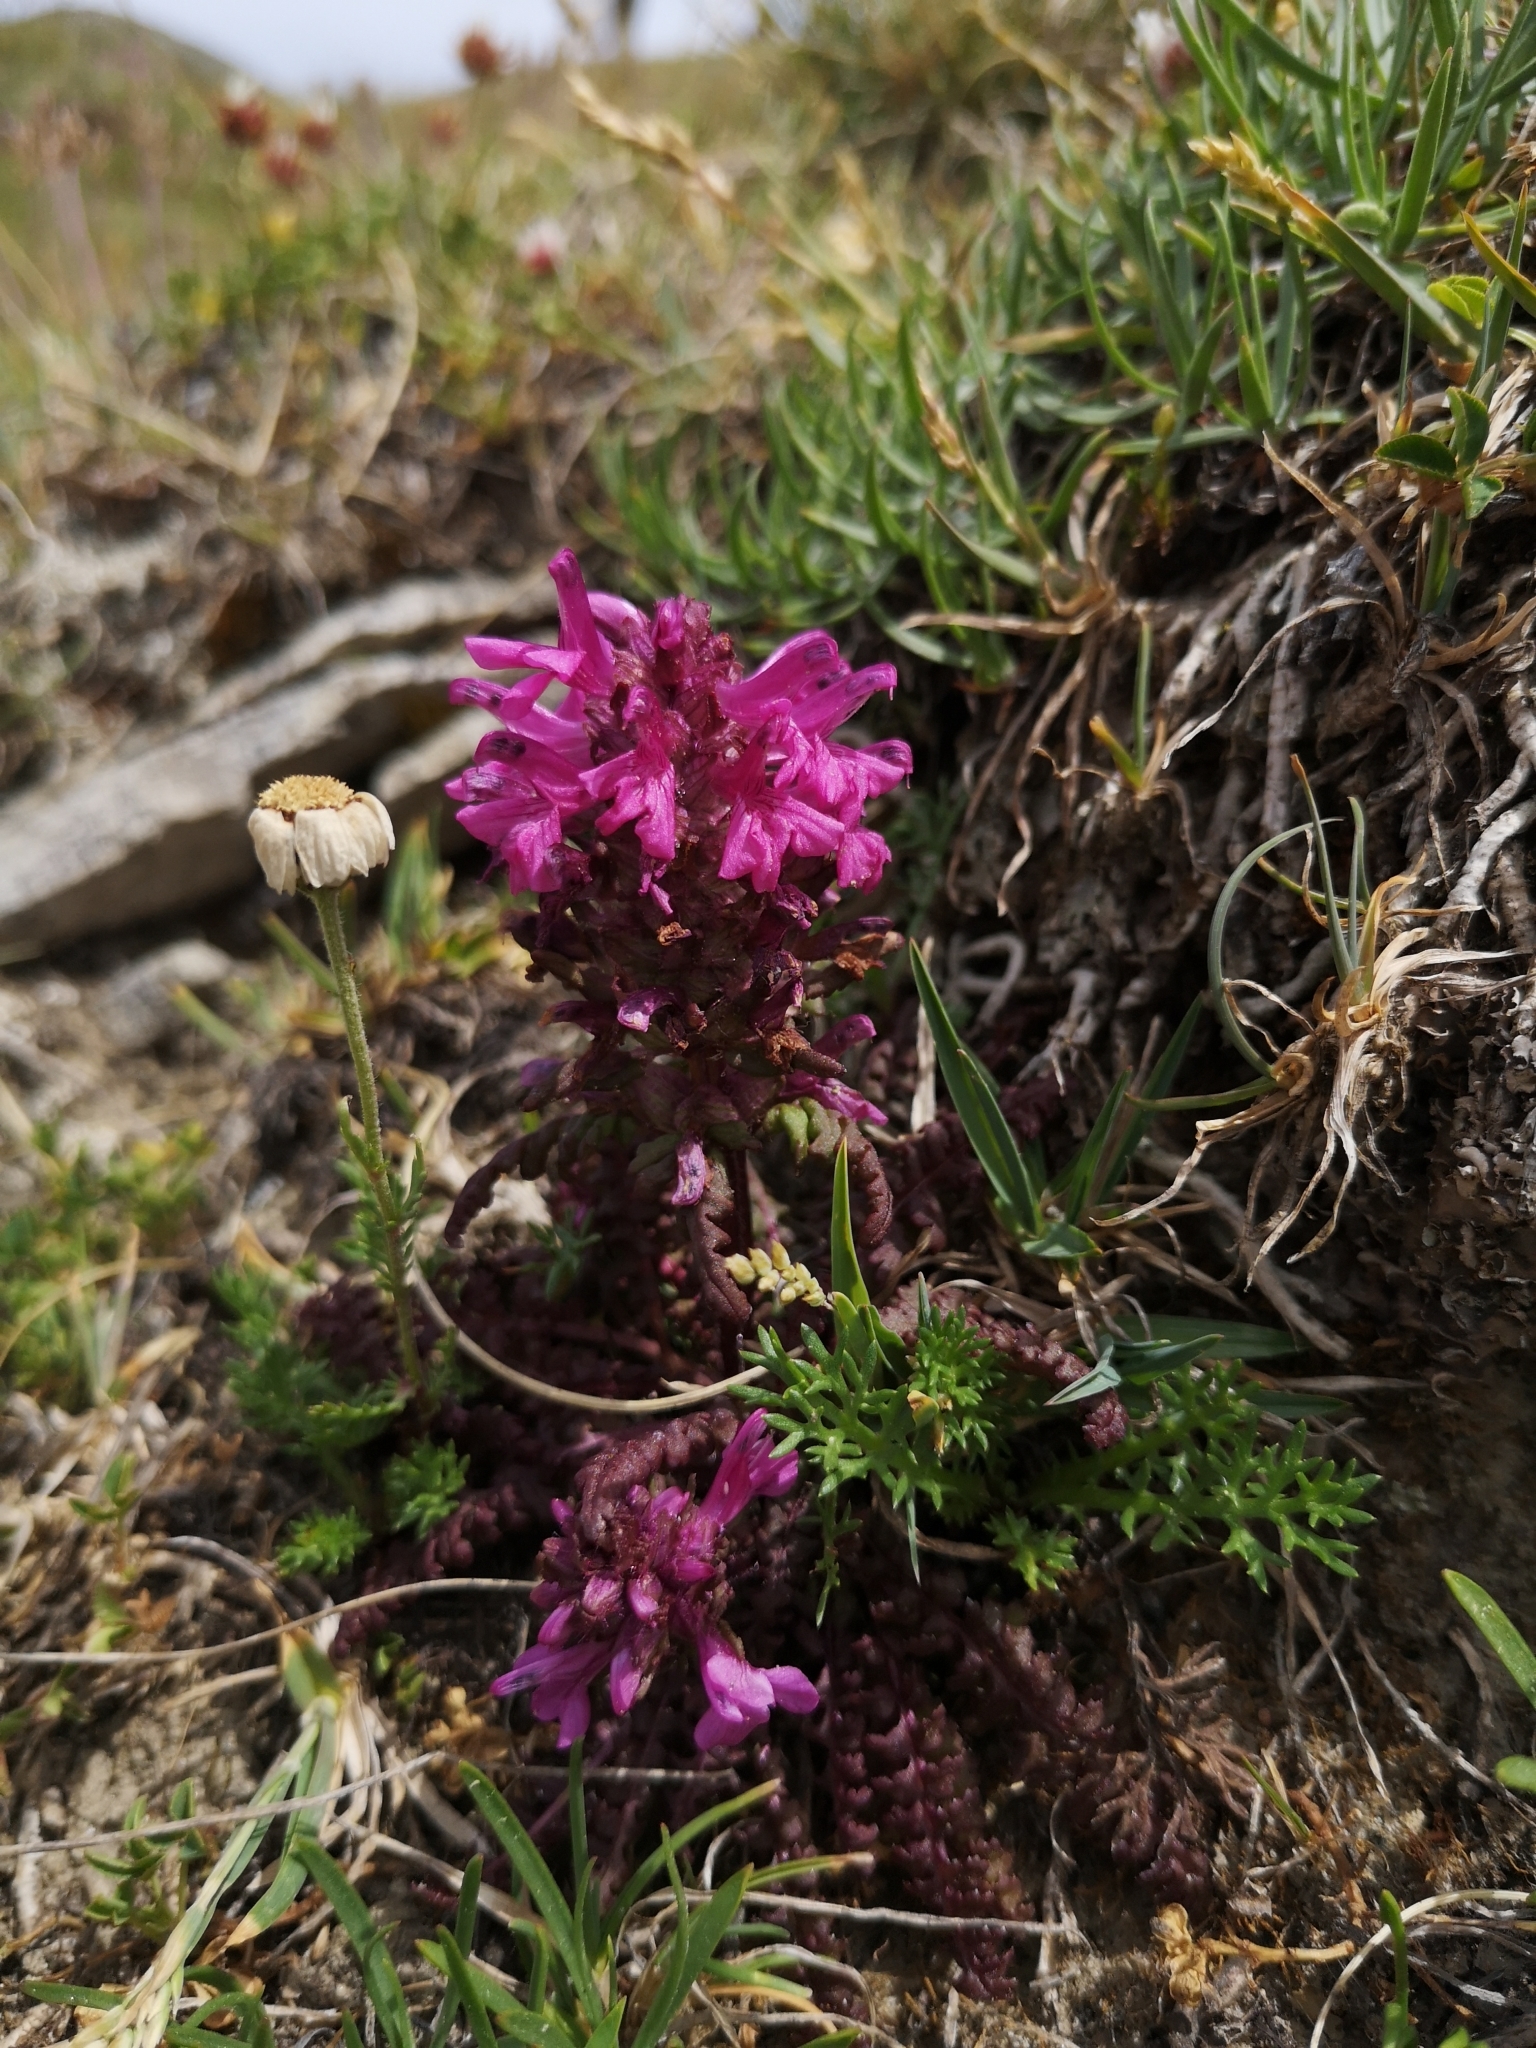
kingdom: Plantae
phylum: Tracheophyta
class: Magnoliopsida
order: Lamiales
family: Orobanchaceae
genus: Pedicularis
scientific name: Pedicularis verticillata
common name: Whorled lousewort
